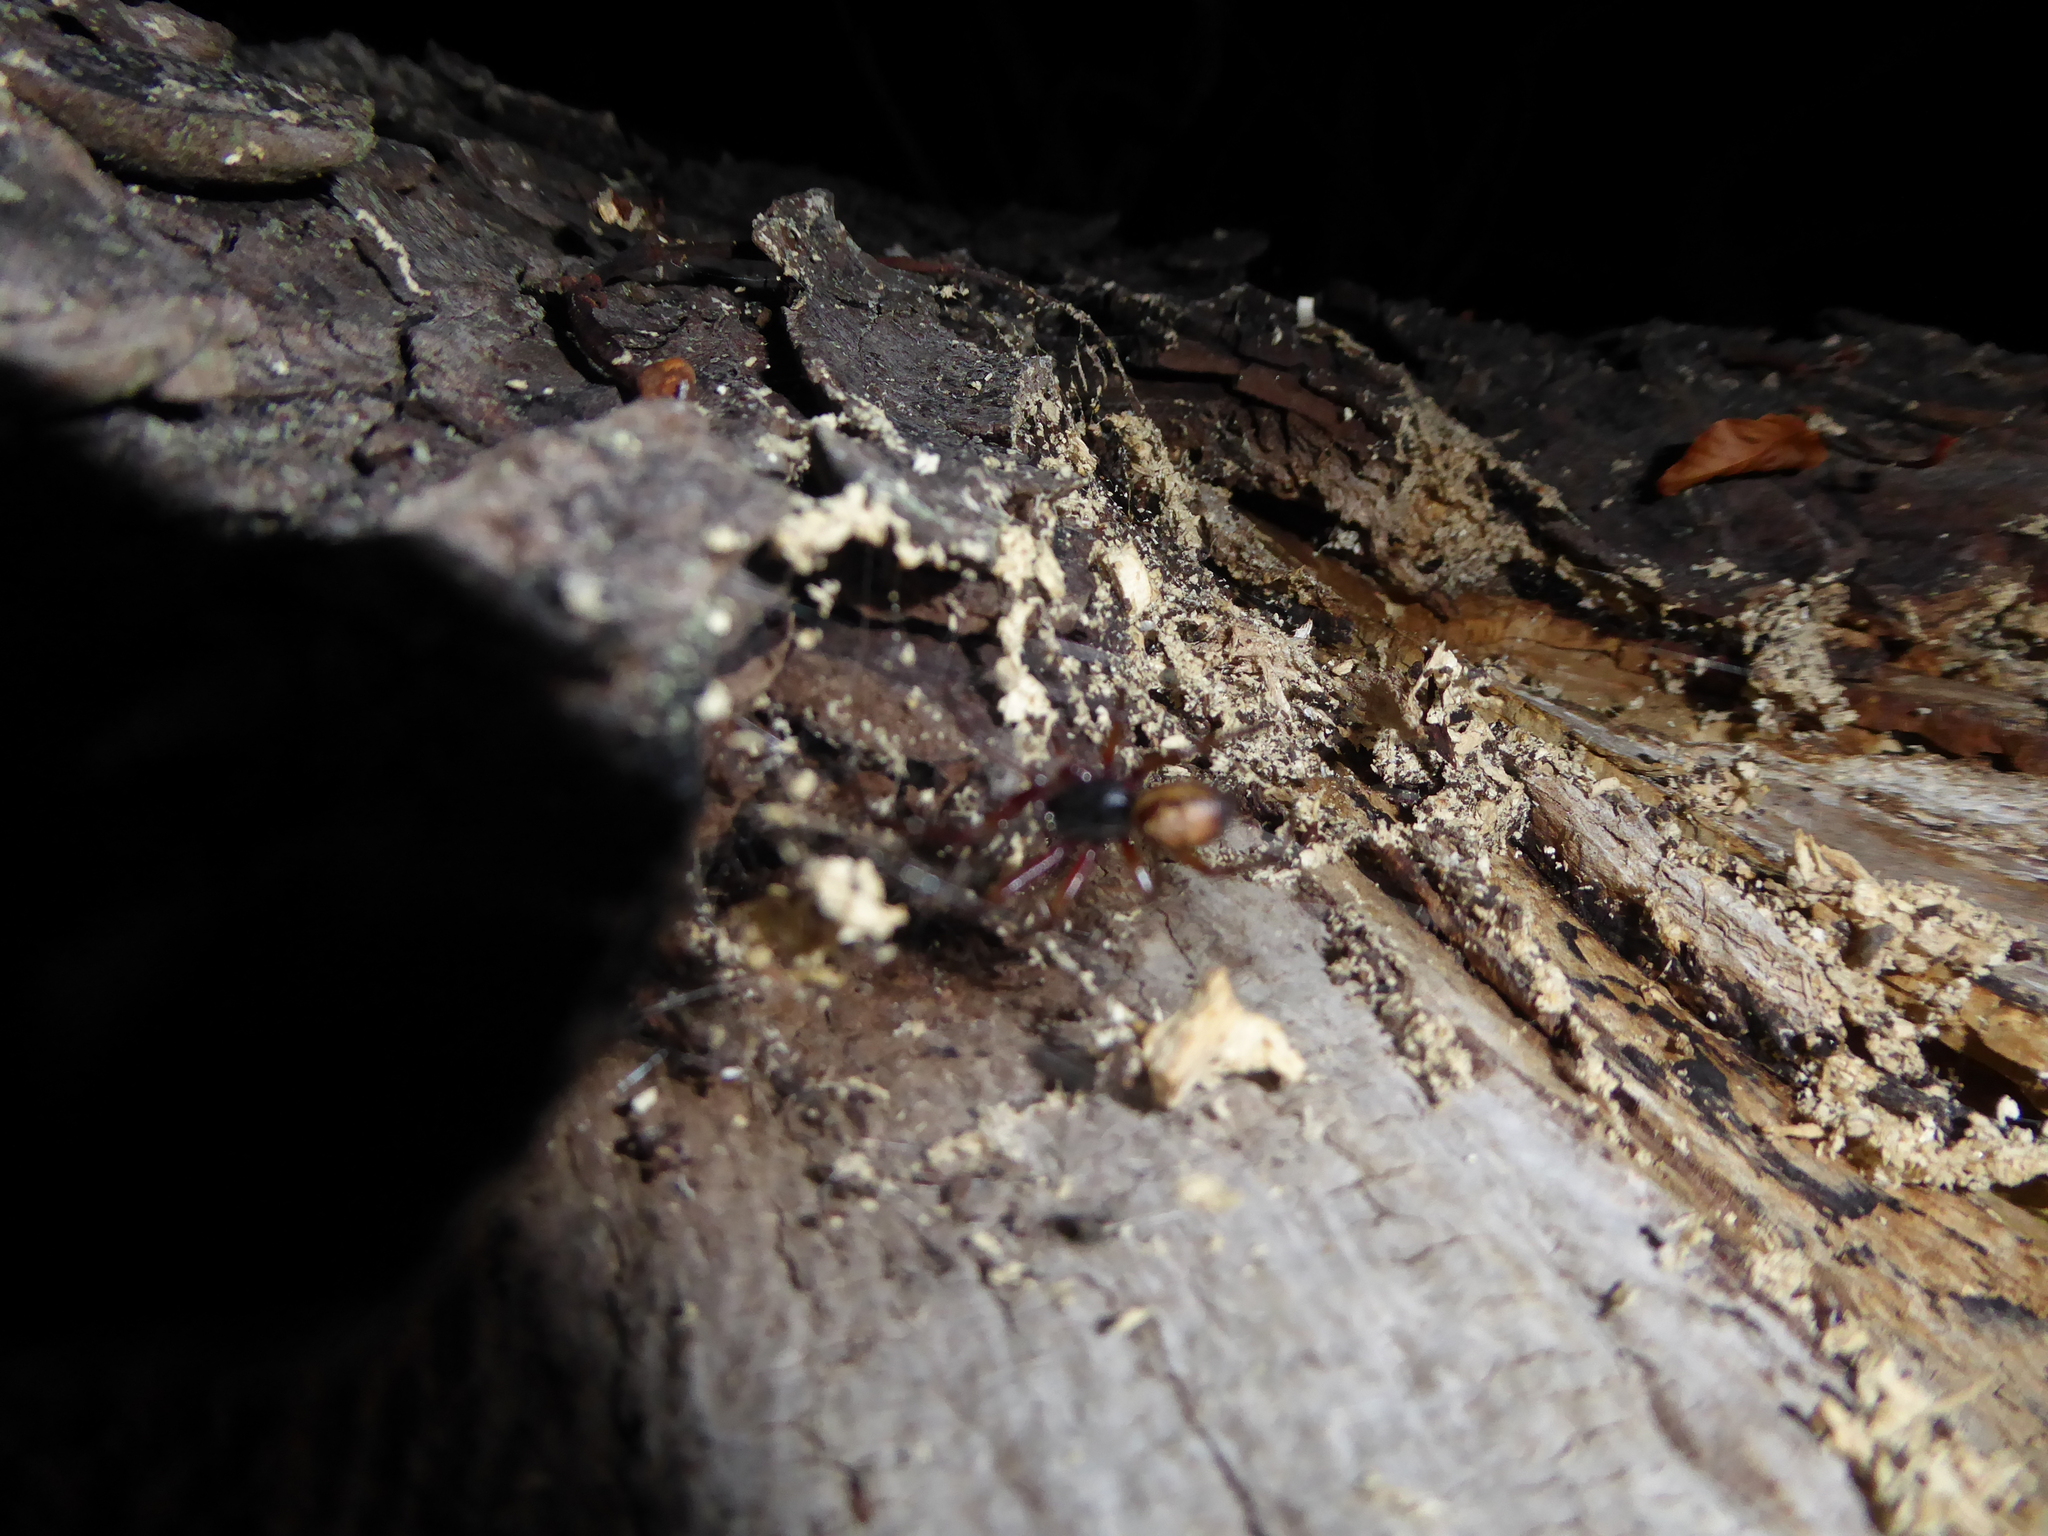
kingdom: Animalia
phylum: Arthropoda
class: Arachnida
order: Araneae
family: Theridiidae
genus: Steatoda
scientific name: Steatoda nobilis
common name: Cobweb weaver
